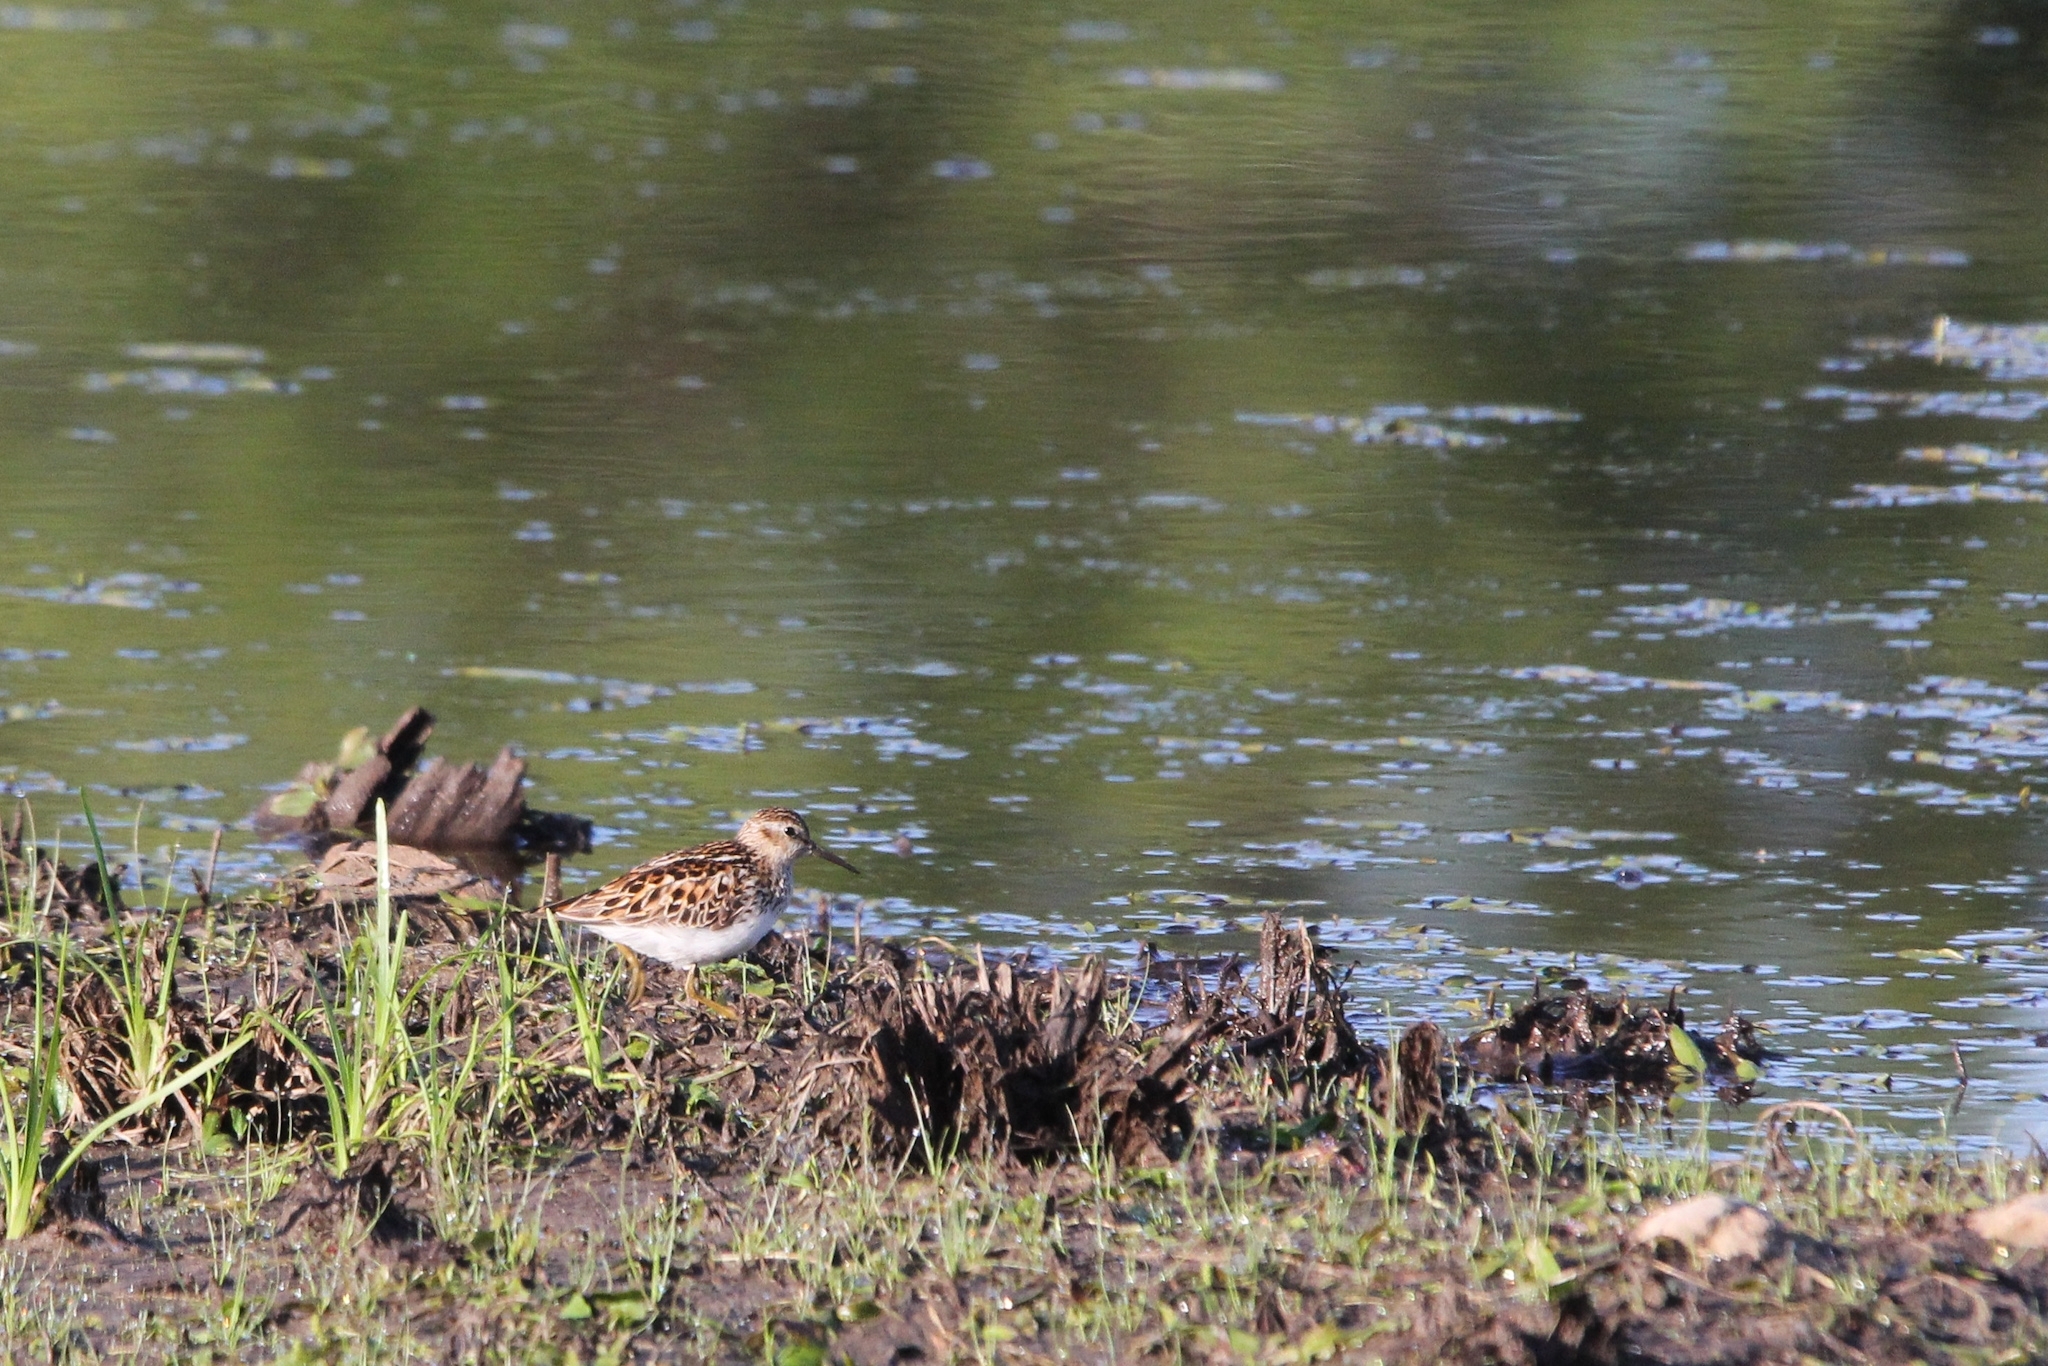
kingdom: Animalia
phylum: Chordata
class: Aves
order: Charadriiformes
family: Scolopacidae
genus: Calidris
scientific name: Calidris minutilla
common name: Least sandpiper
